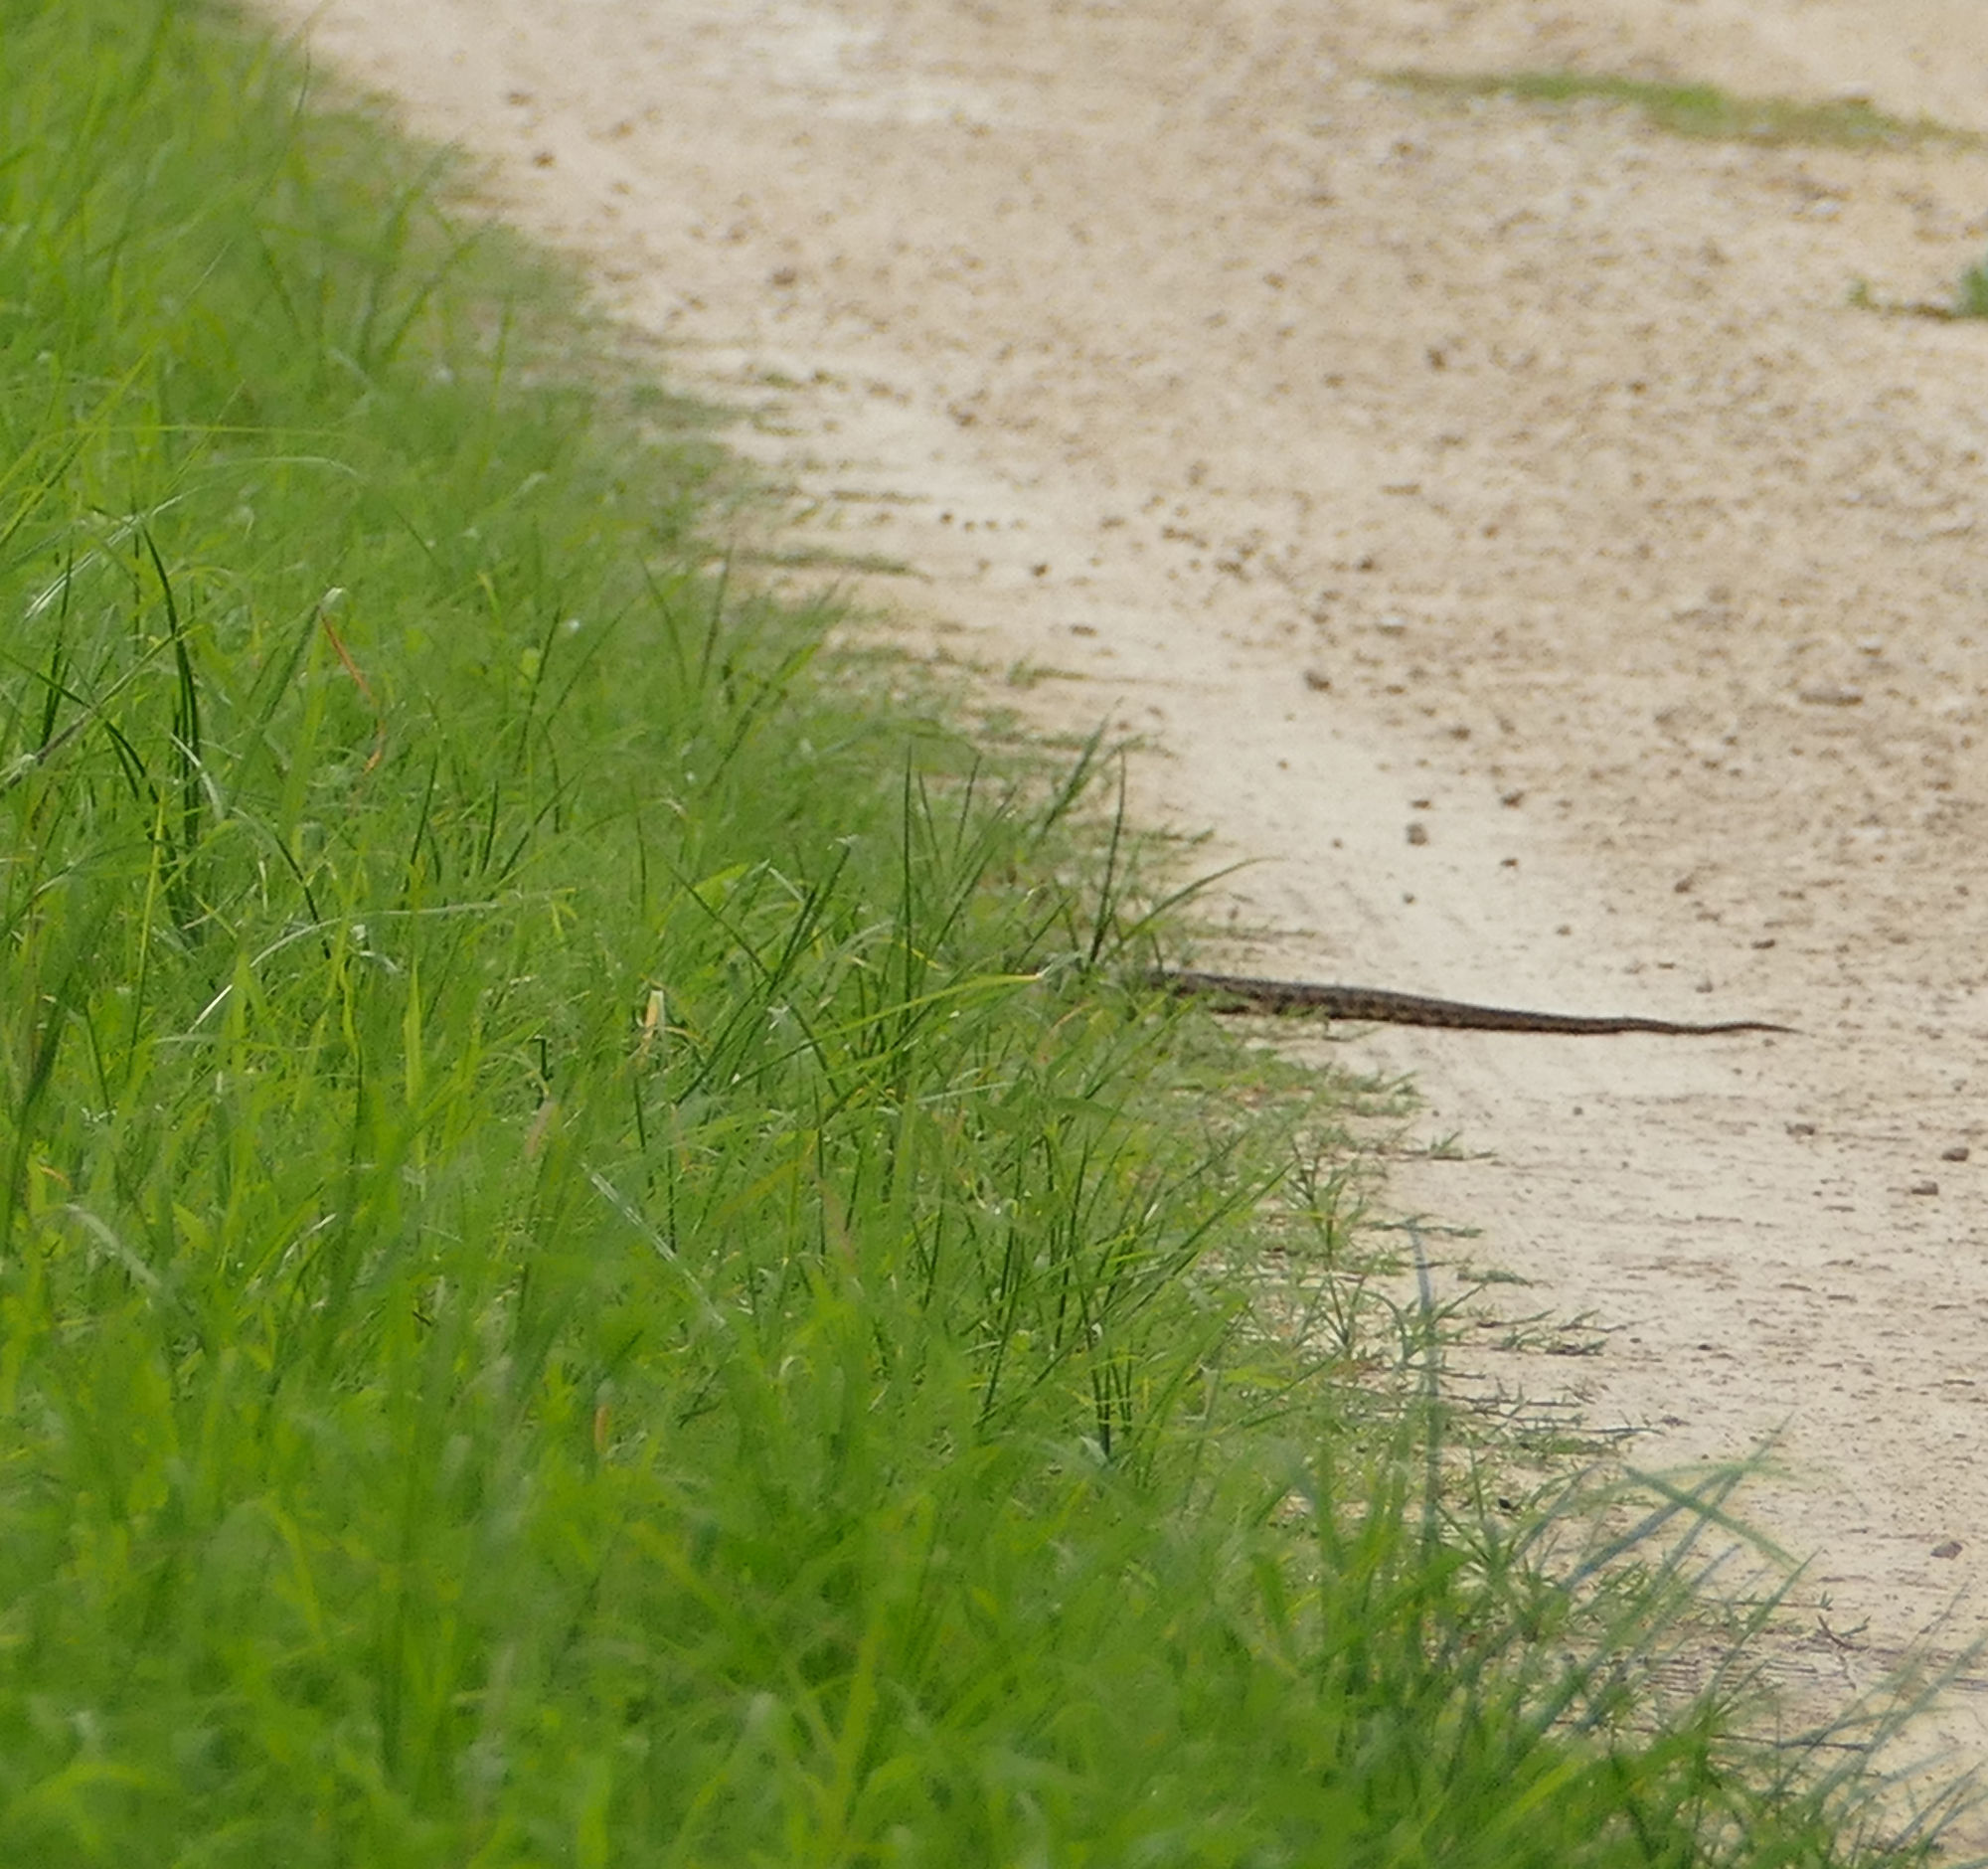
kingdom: Animalia
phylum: Chordata
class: Squamata
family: Colubridae
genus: Pantherophis
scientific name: Pantherophis obsoletus
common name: Black rat snake
